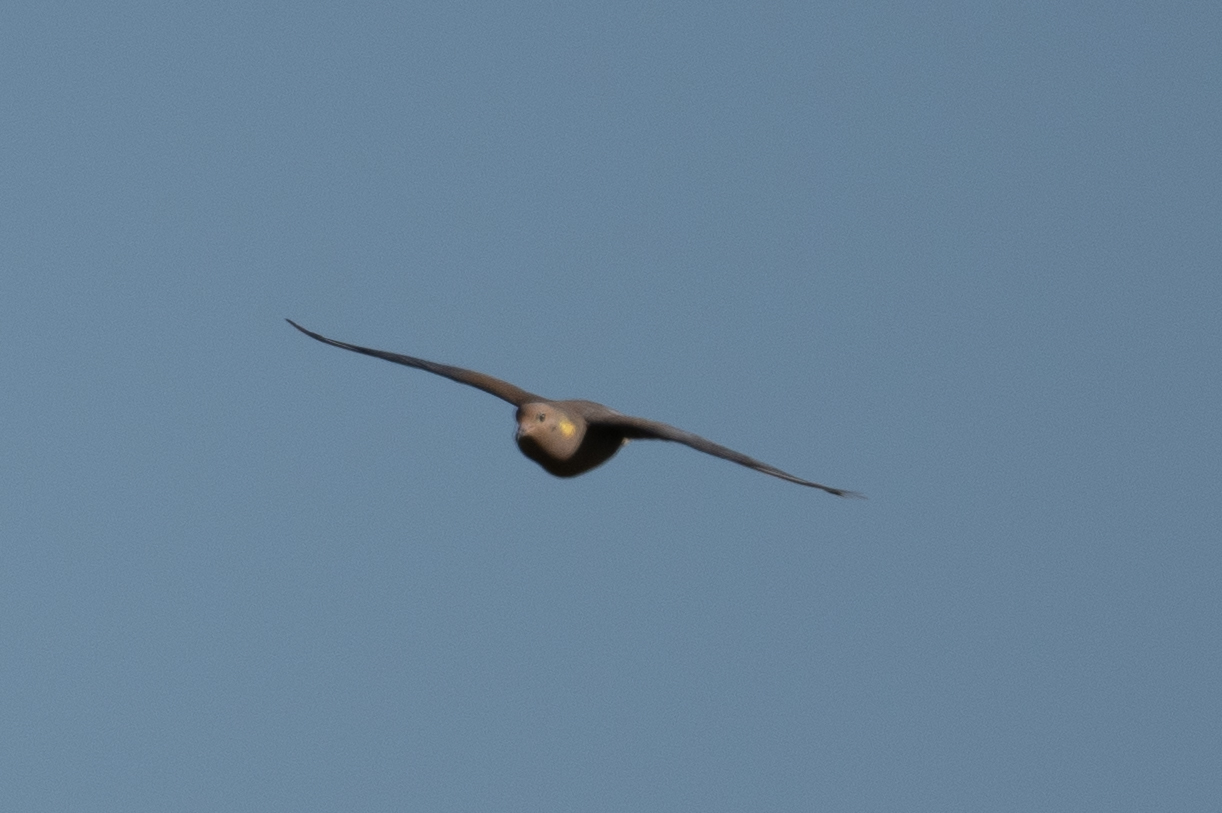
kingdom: Animalia
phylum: Chordata
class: Aves
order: Columbiformes
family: Columbidae
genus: Zenaida
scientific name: Zenaida macroura
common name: Mourning dove
